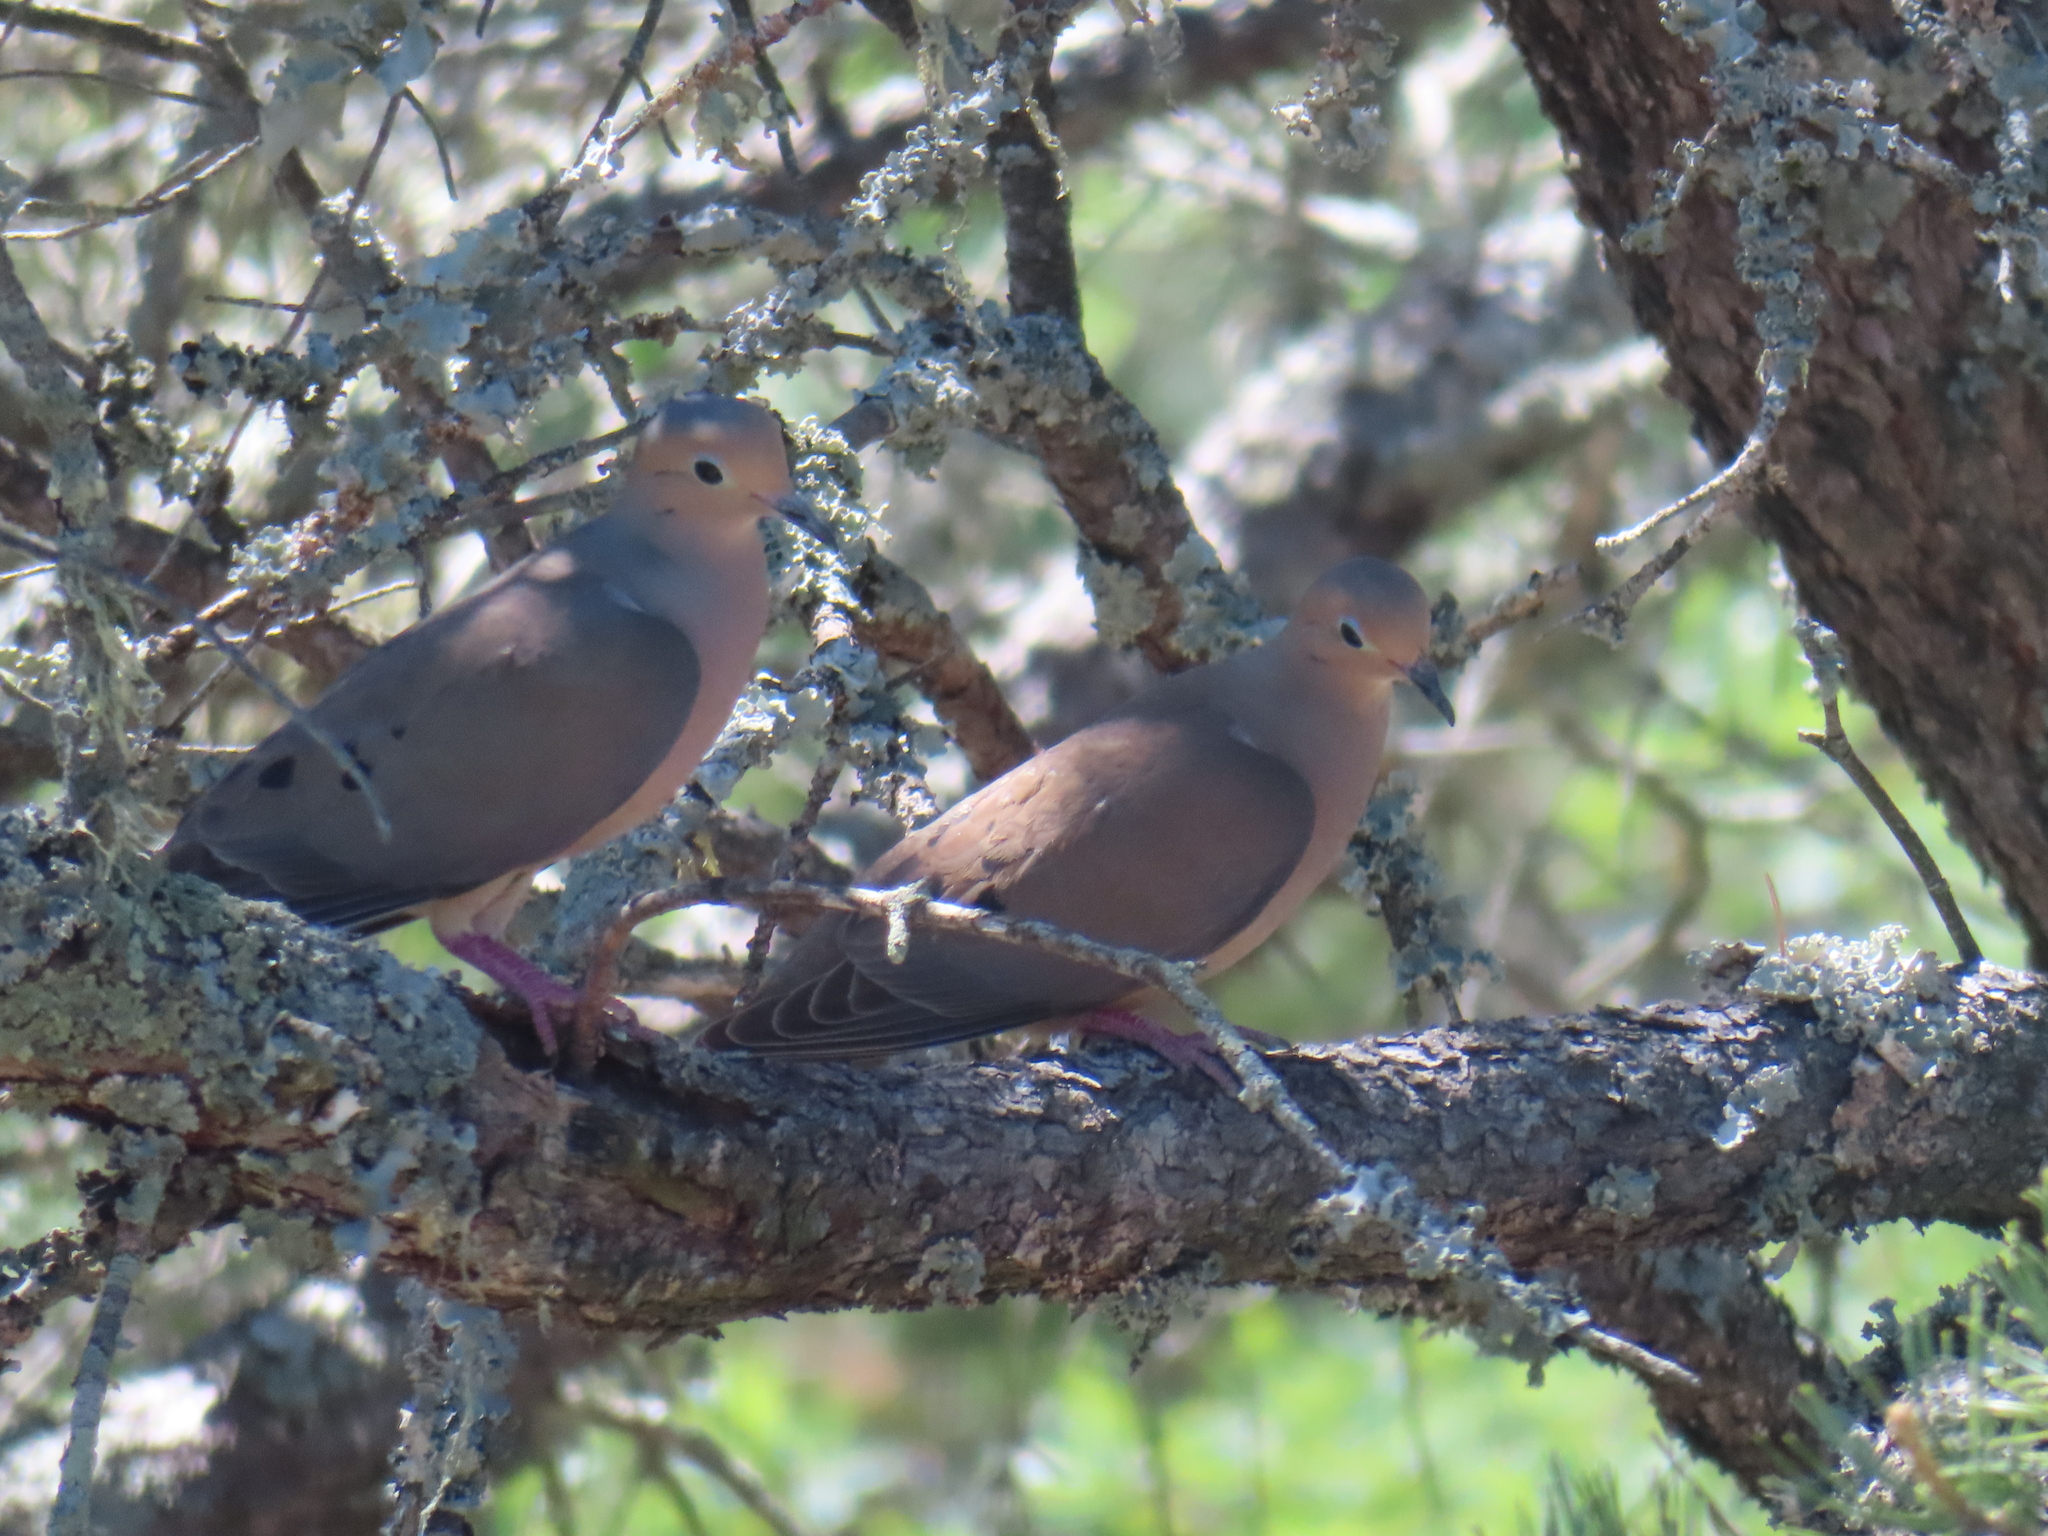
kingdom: Animalia
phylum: Chordata
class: Aves
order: Columbiformes
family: Columbidae
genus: Zenaida
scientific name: Zenaida macroura
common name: Mourning dove
